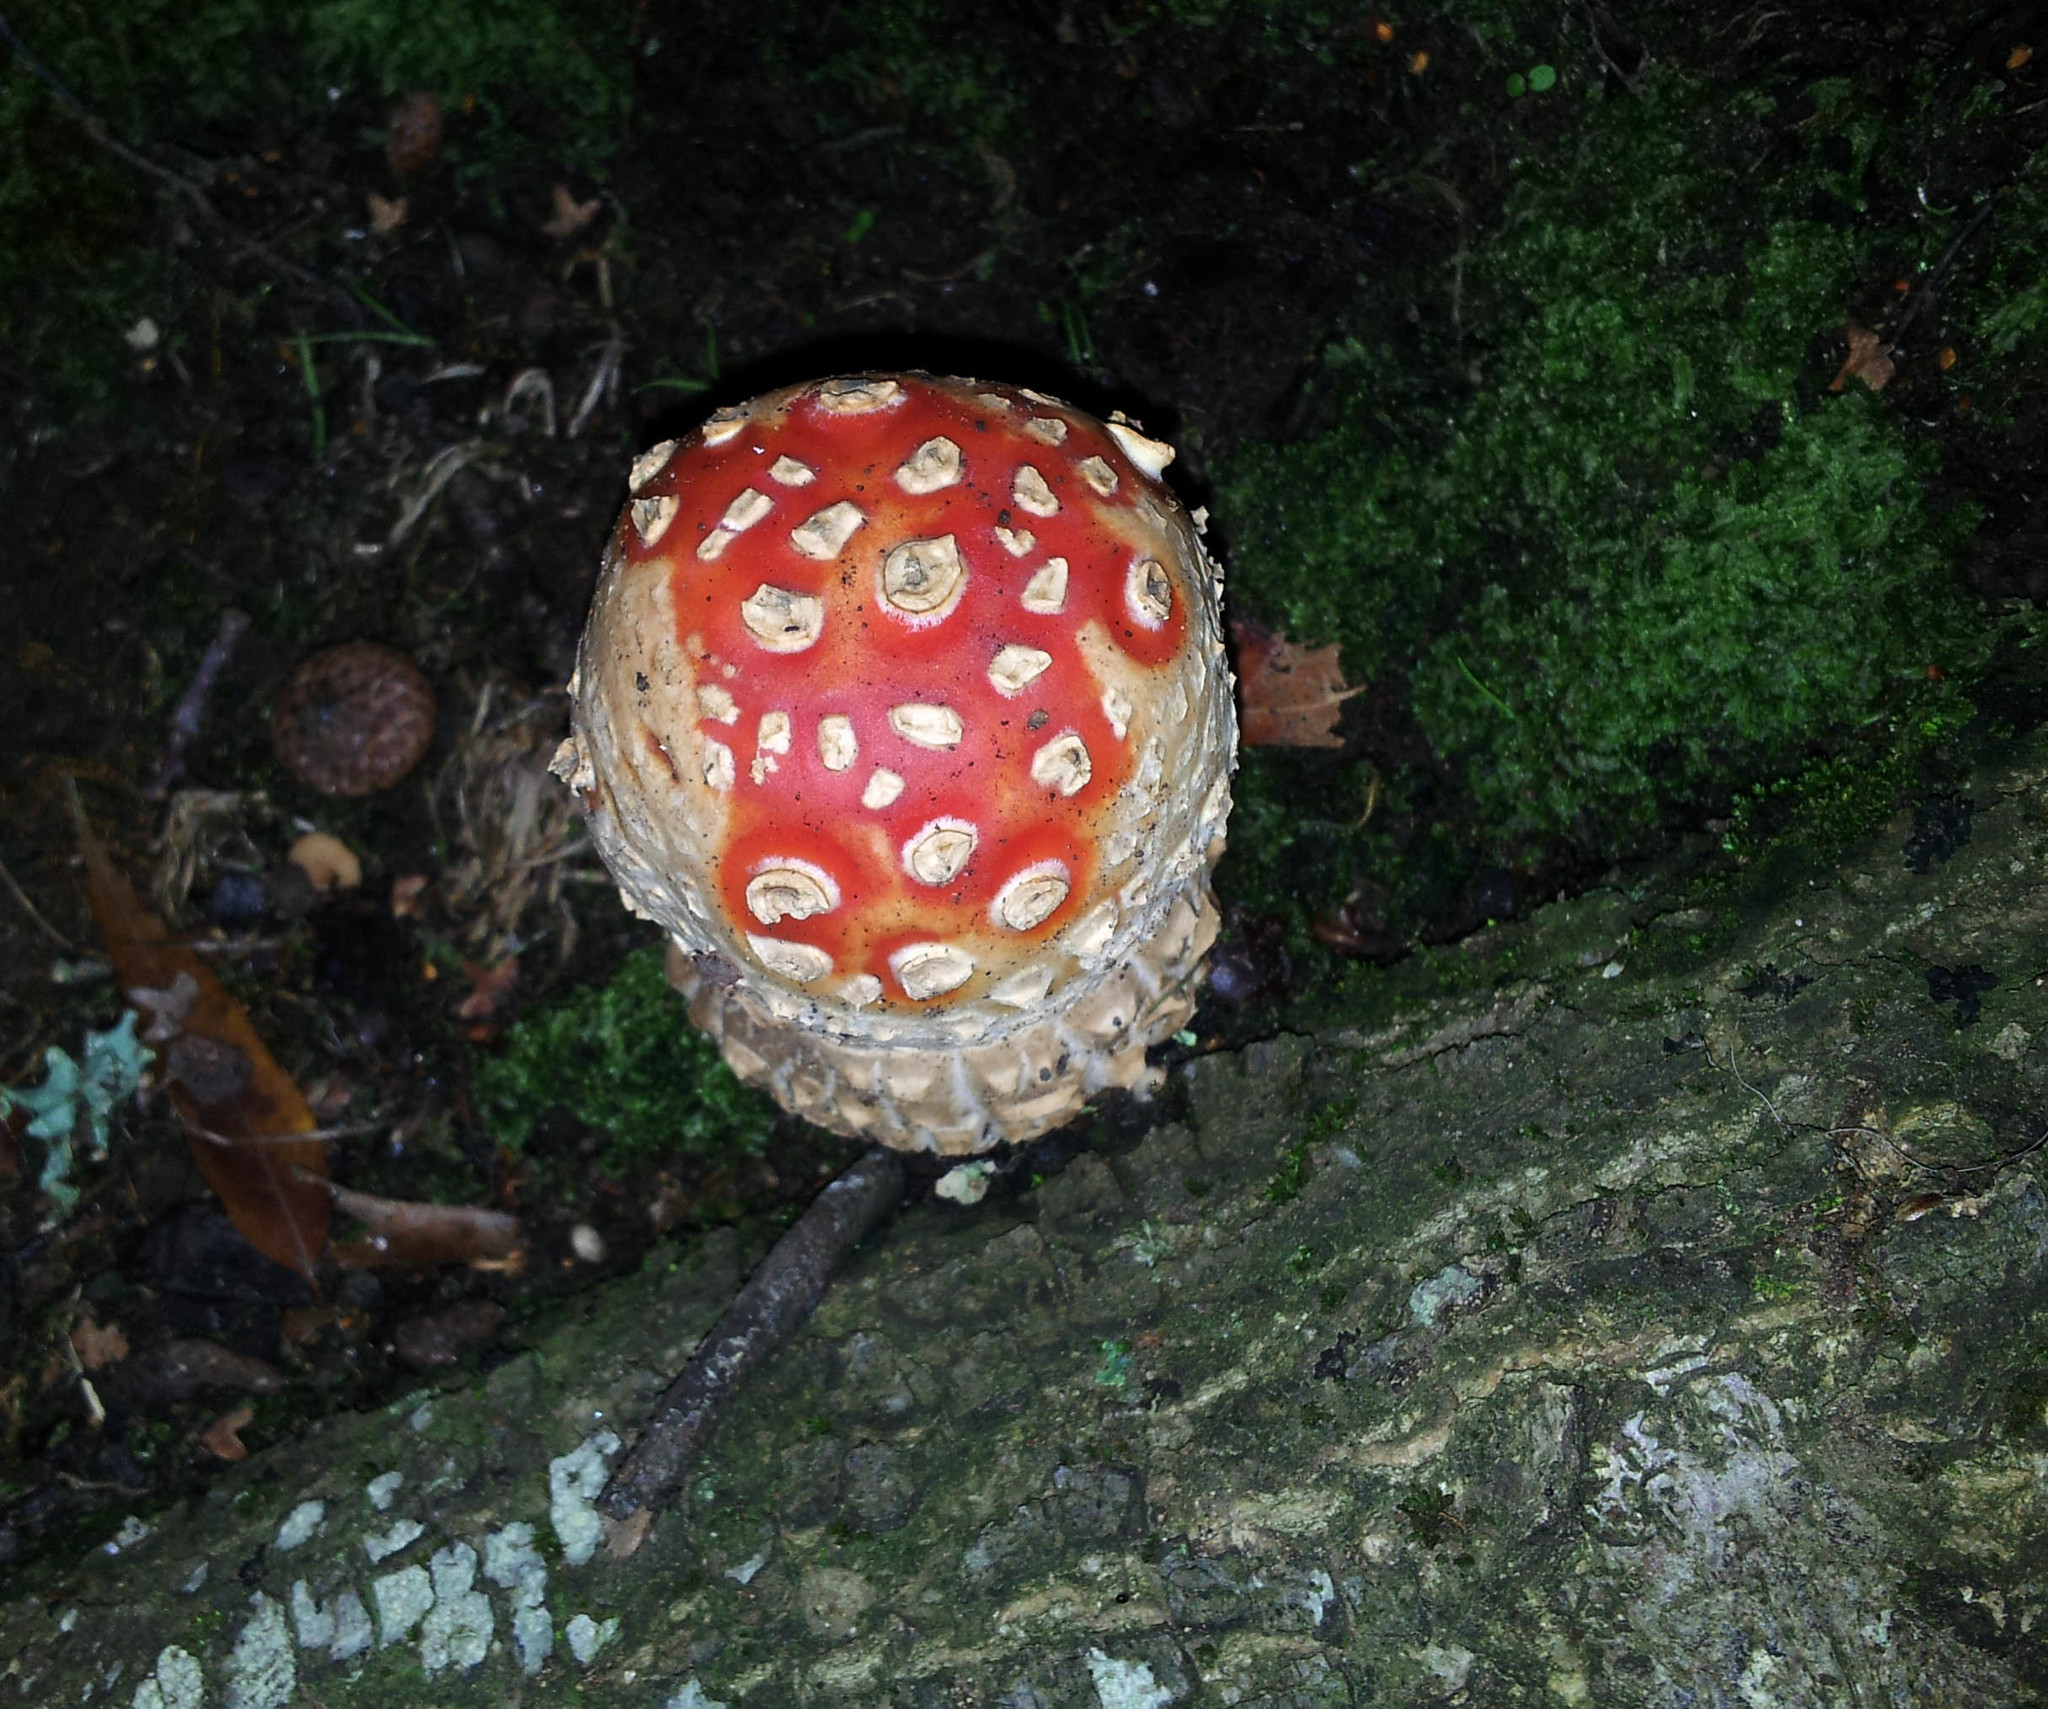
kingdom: Fungi
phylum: Basidiomycota
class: Agaricomycetes
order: Agaricales
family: Amanitaceae
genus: Amanita
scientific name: Amanita muscaria
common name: Fly agaric
